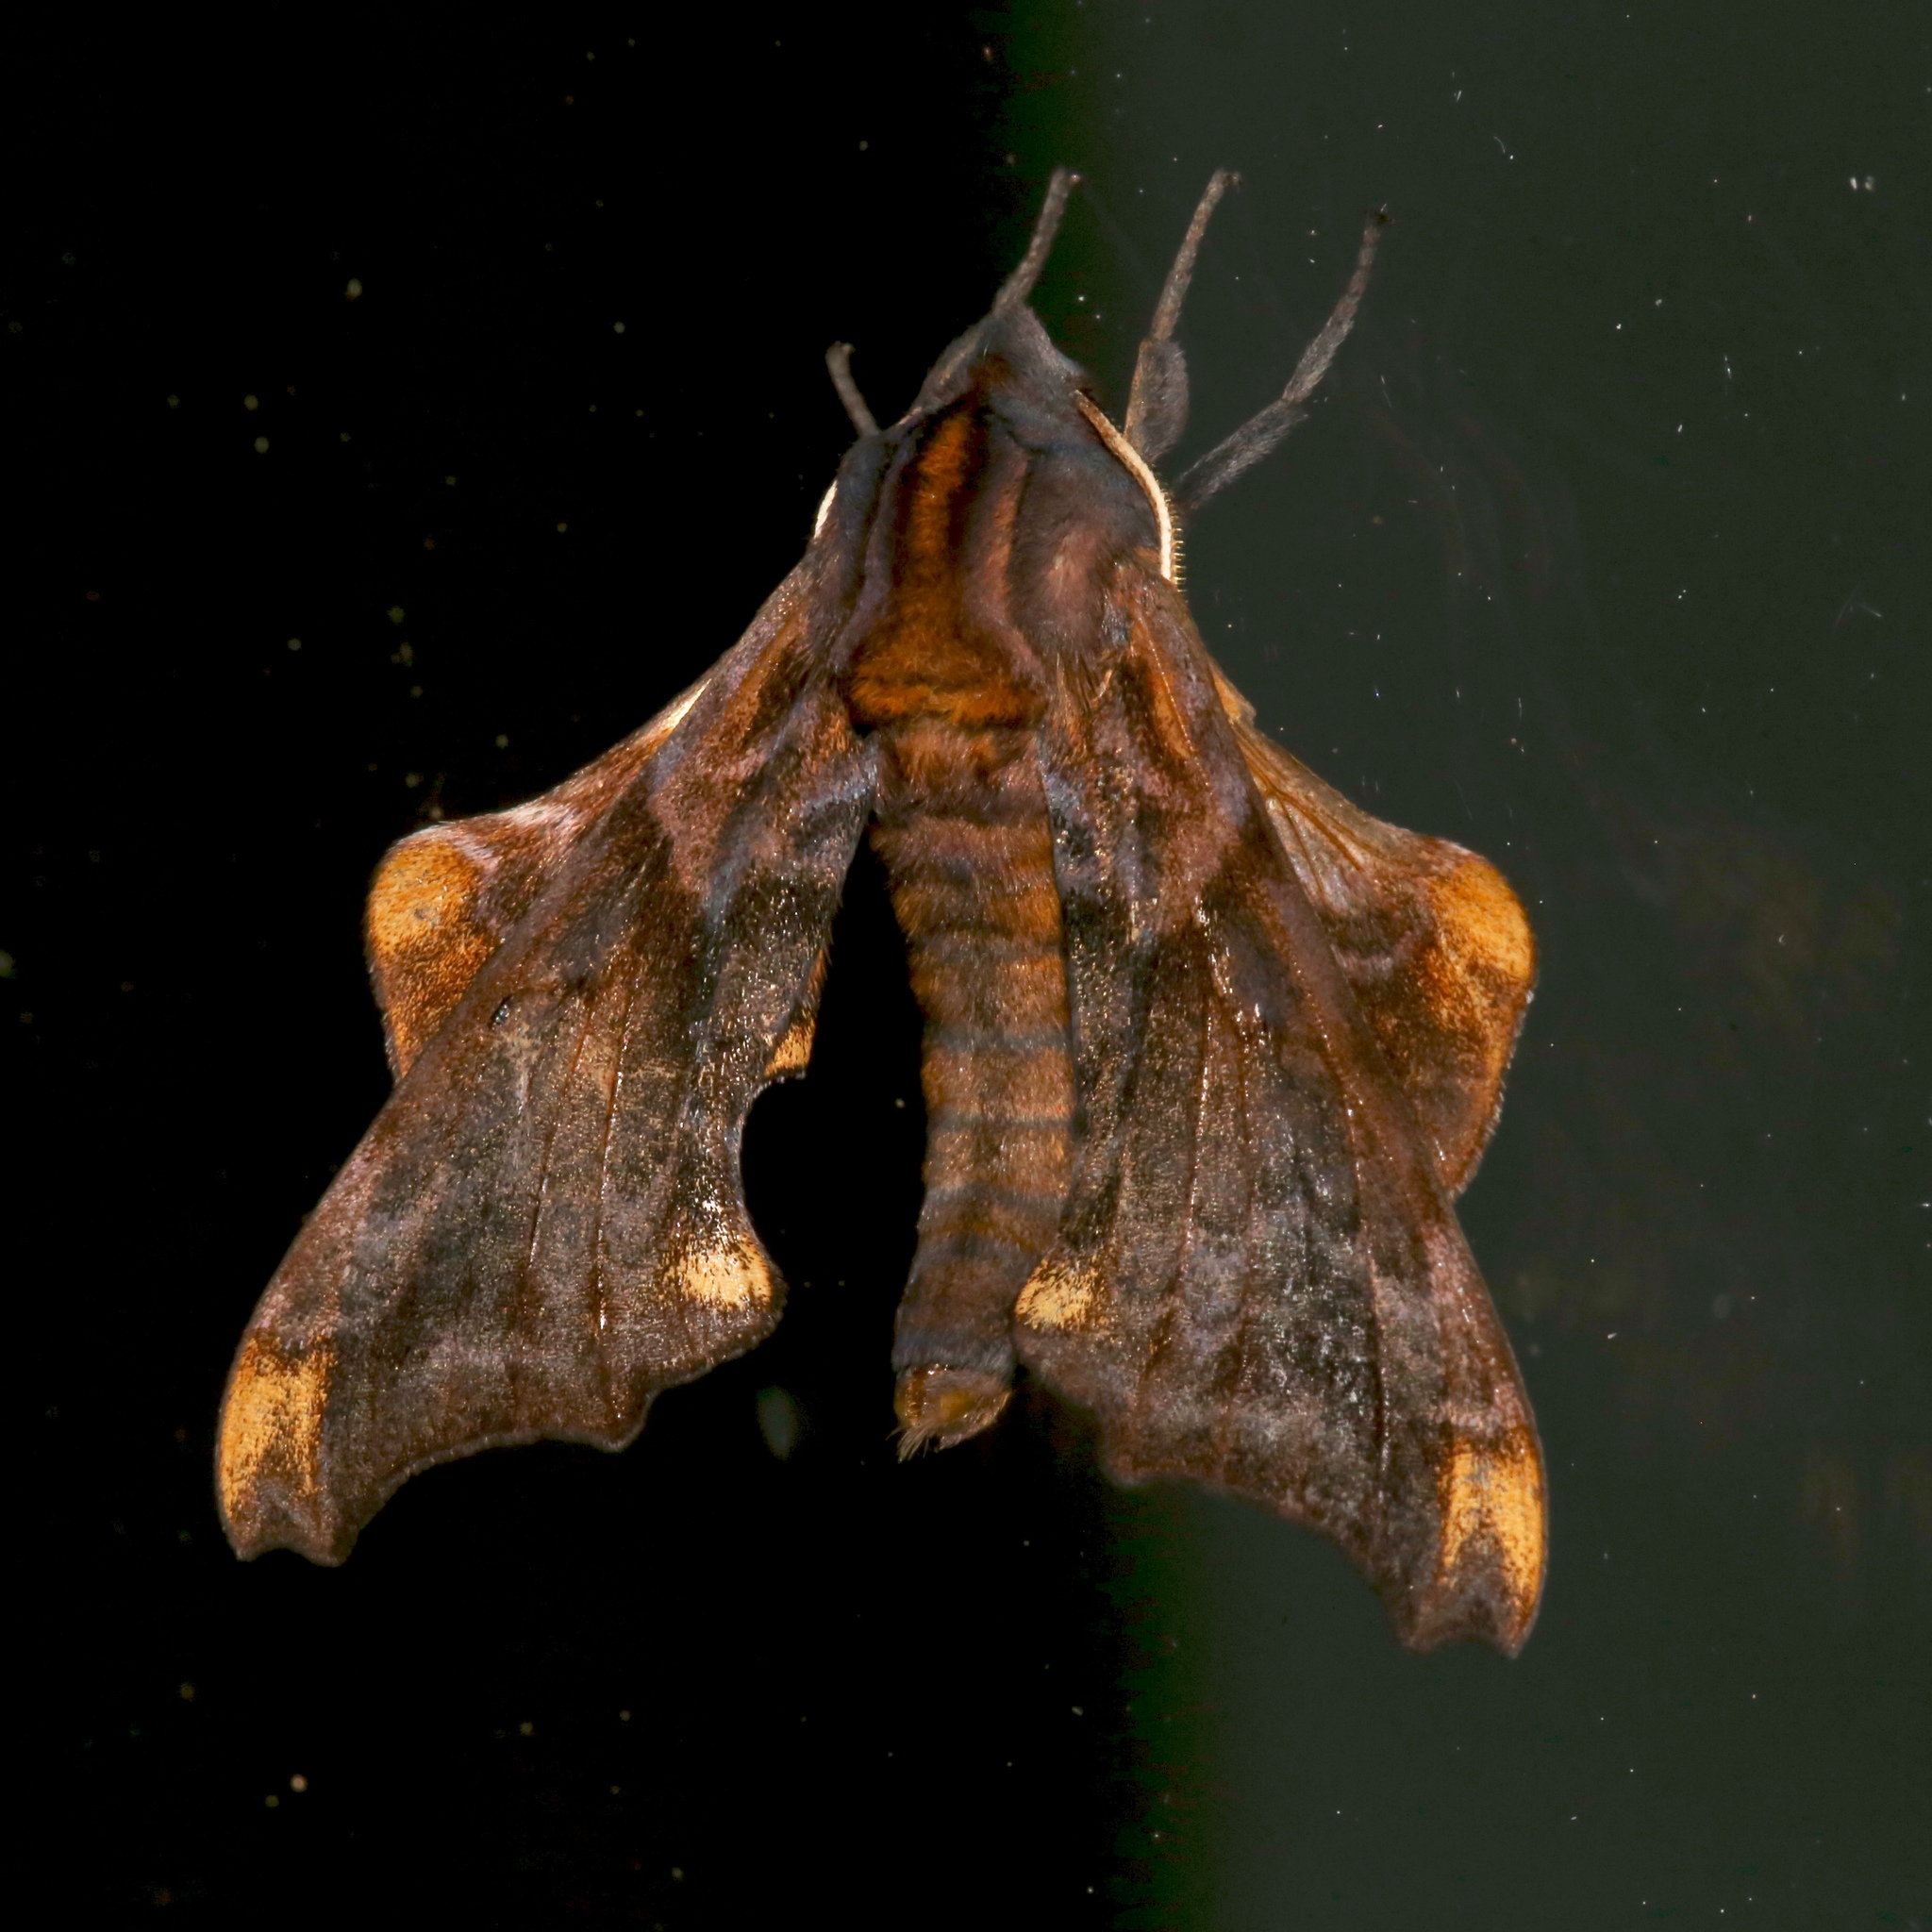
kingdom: Animalia
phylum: Arthropoda
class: Insecta
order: Lepidoptera
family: Sphingidae
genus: Paonias
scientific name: Paonias myops
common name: Small-eyed sphinx
